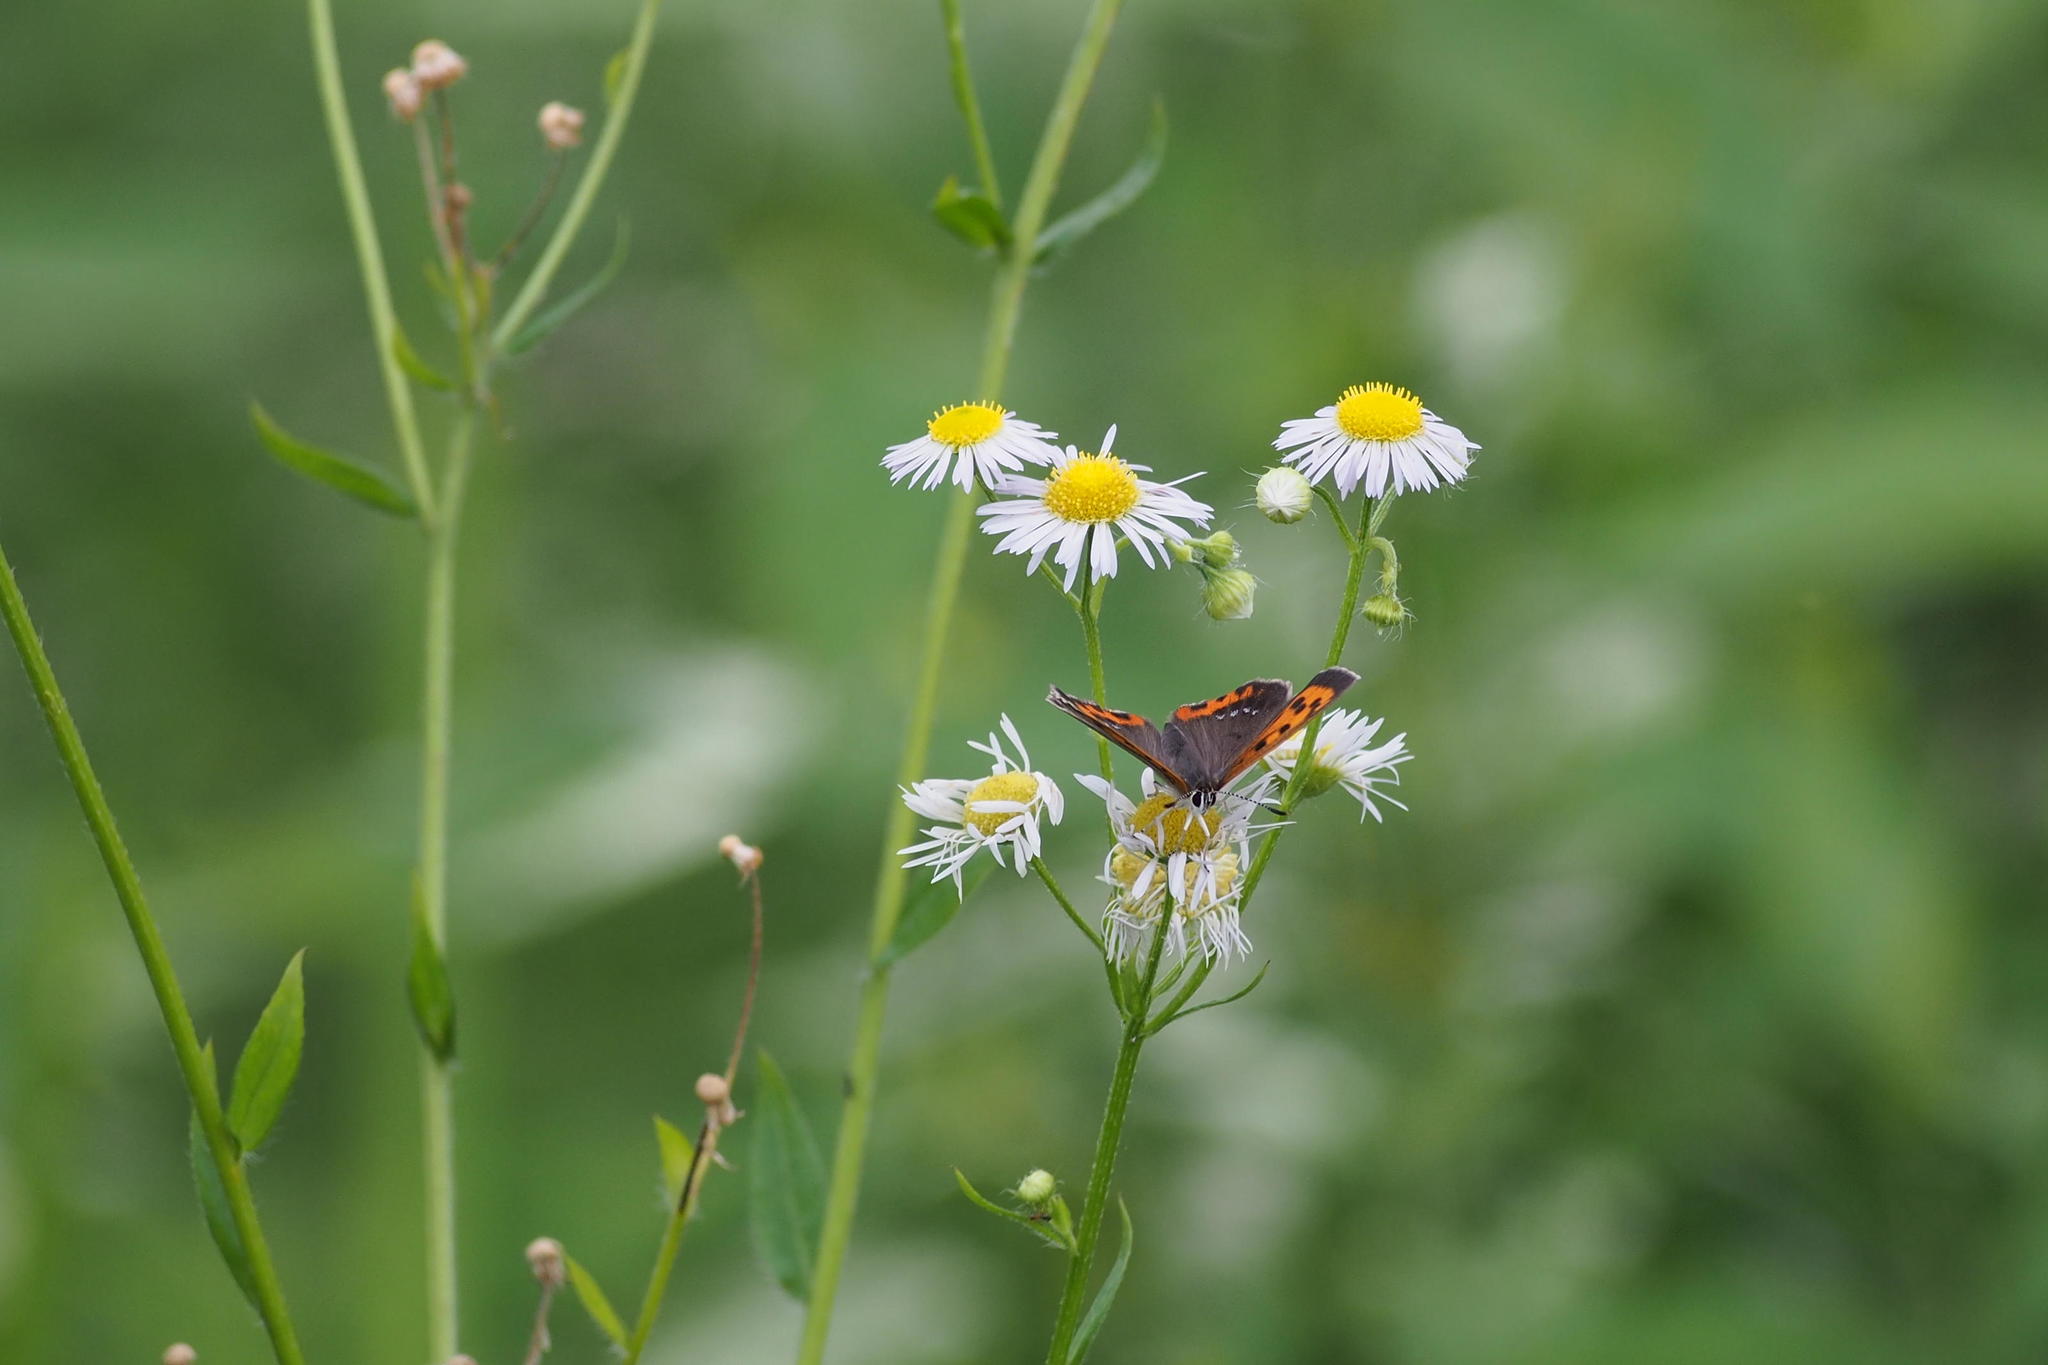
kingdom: Animalia
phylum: Arthropoda
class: Insecta
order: Lepidoptera
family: Lycaenidae
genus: Lycaena
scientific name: Lycaena phlaeas
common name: Small copper
